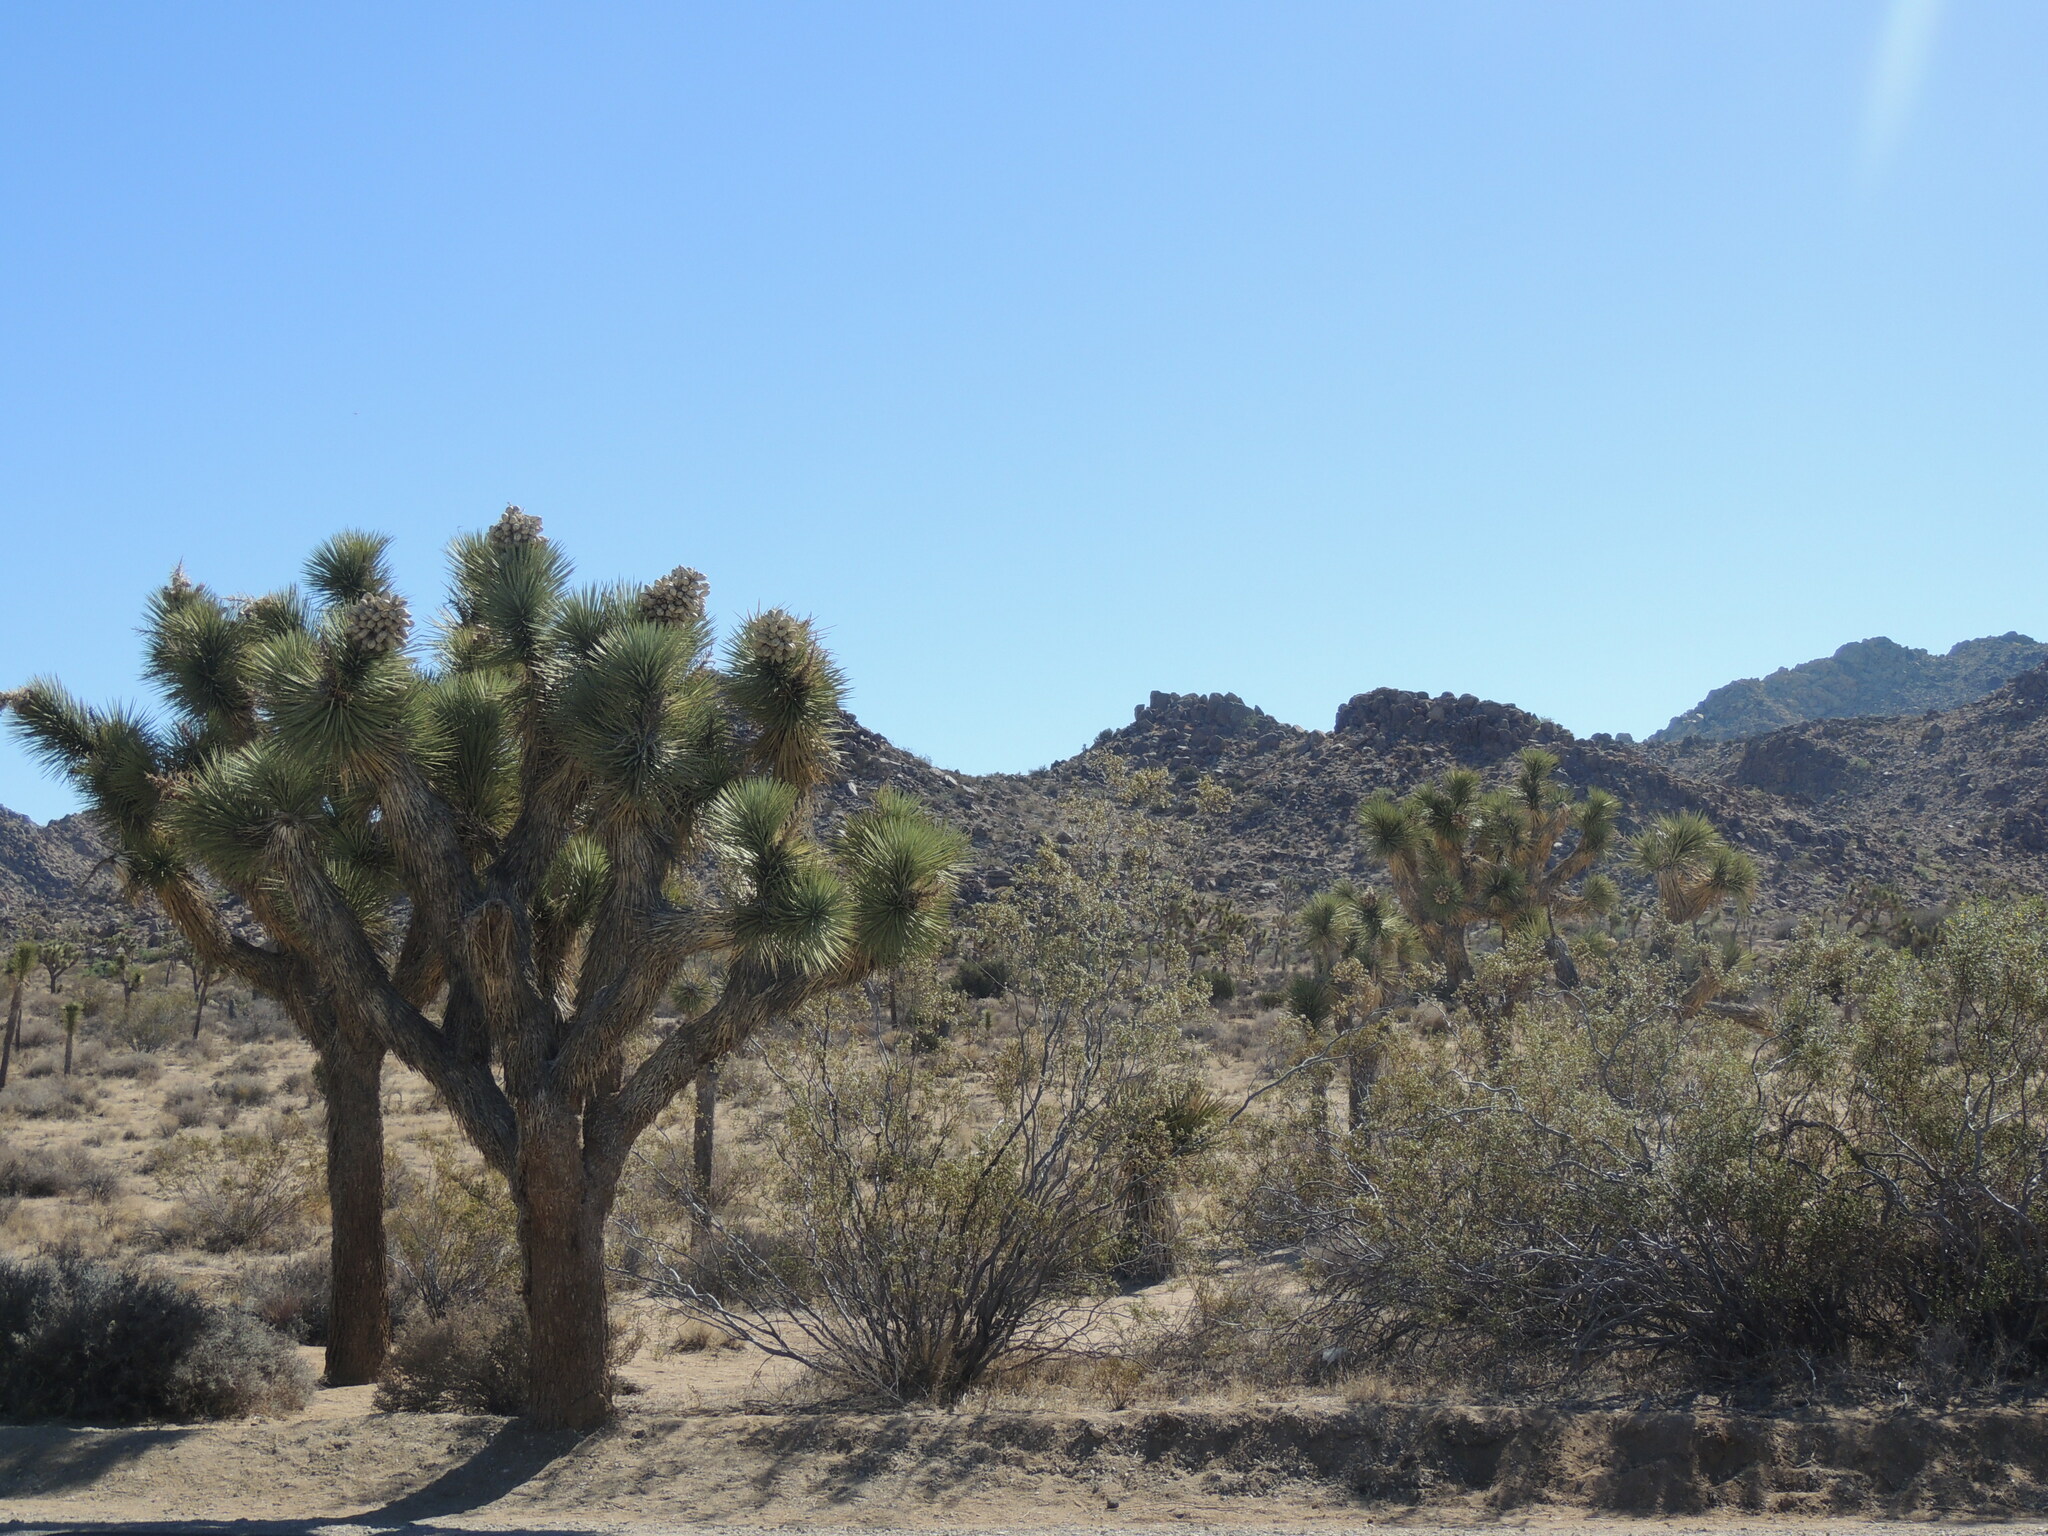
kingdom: Plantae
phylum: Tracheophyta
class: Liliopsida
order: Asparagales
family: Asparagaceae
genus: Yucca
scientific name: Yucca brevifolia
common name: Joshua tree
